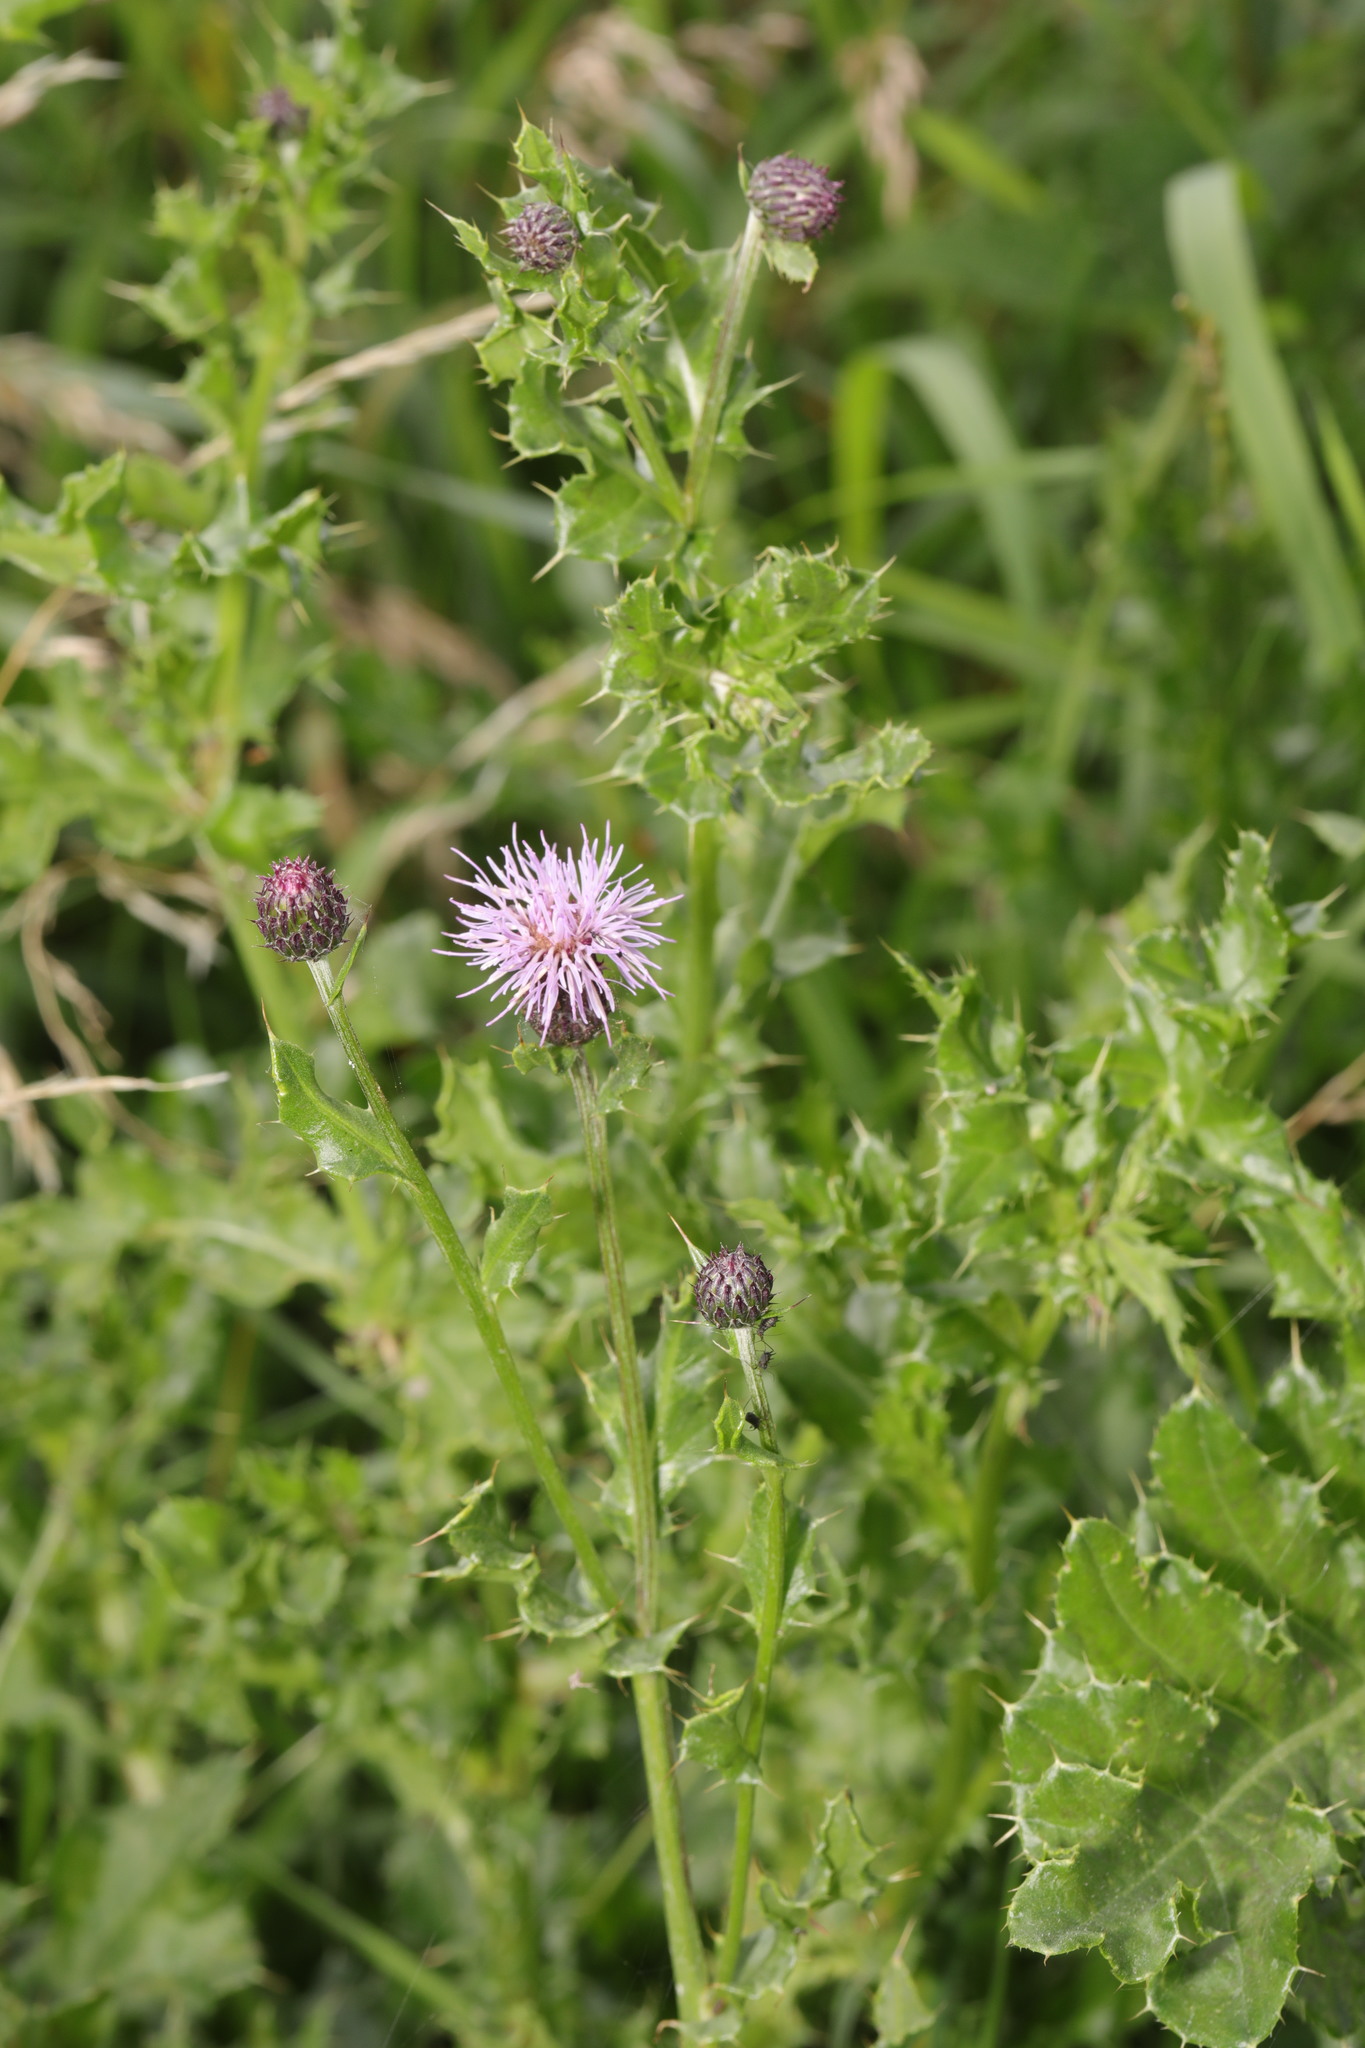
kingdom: Plantae
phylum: Tracheophyta
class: Magnoliopsida
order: Asterales
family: Asteraceae
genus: Cirsium
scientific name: Cirsium arvense
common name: Creeping thistle
